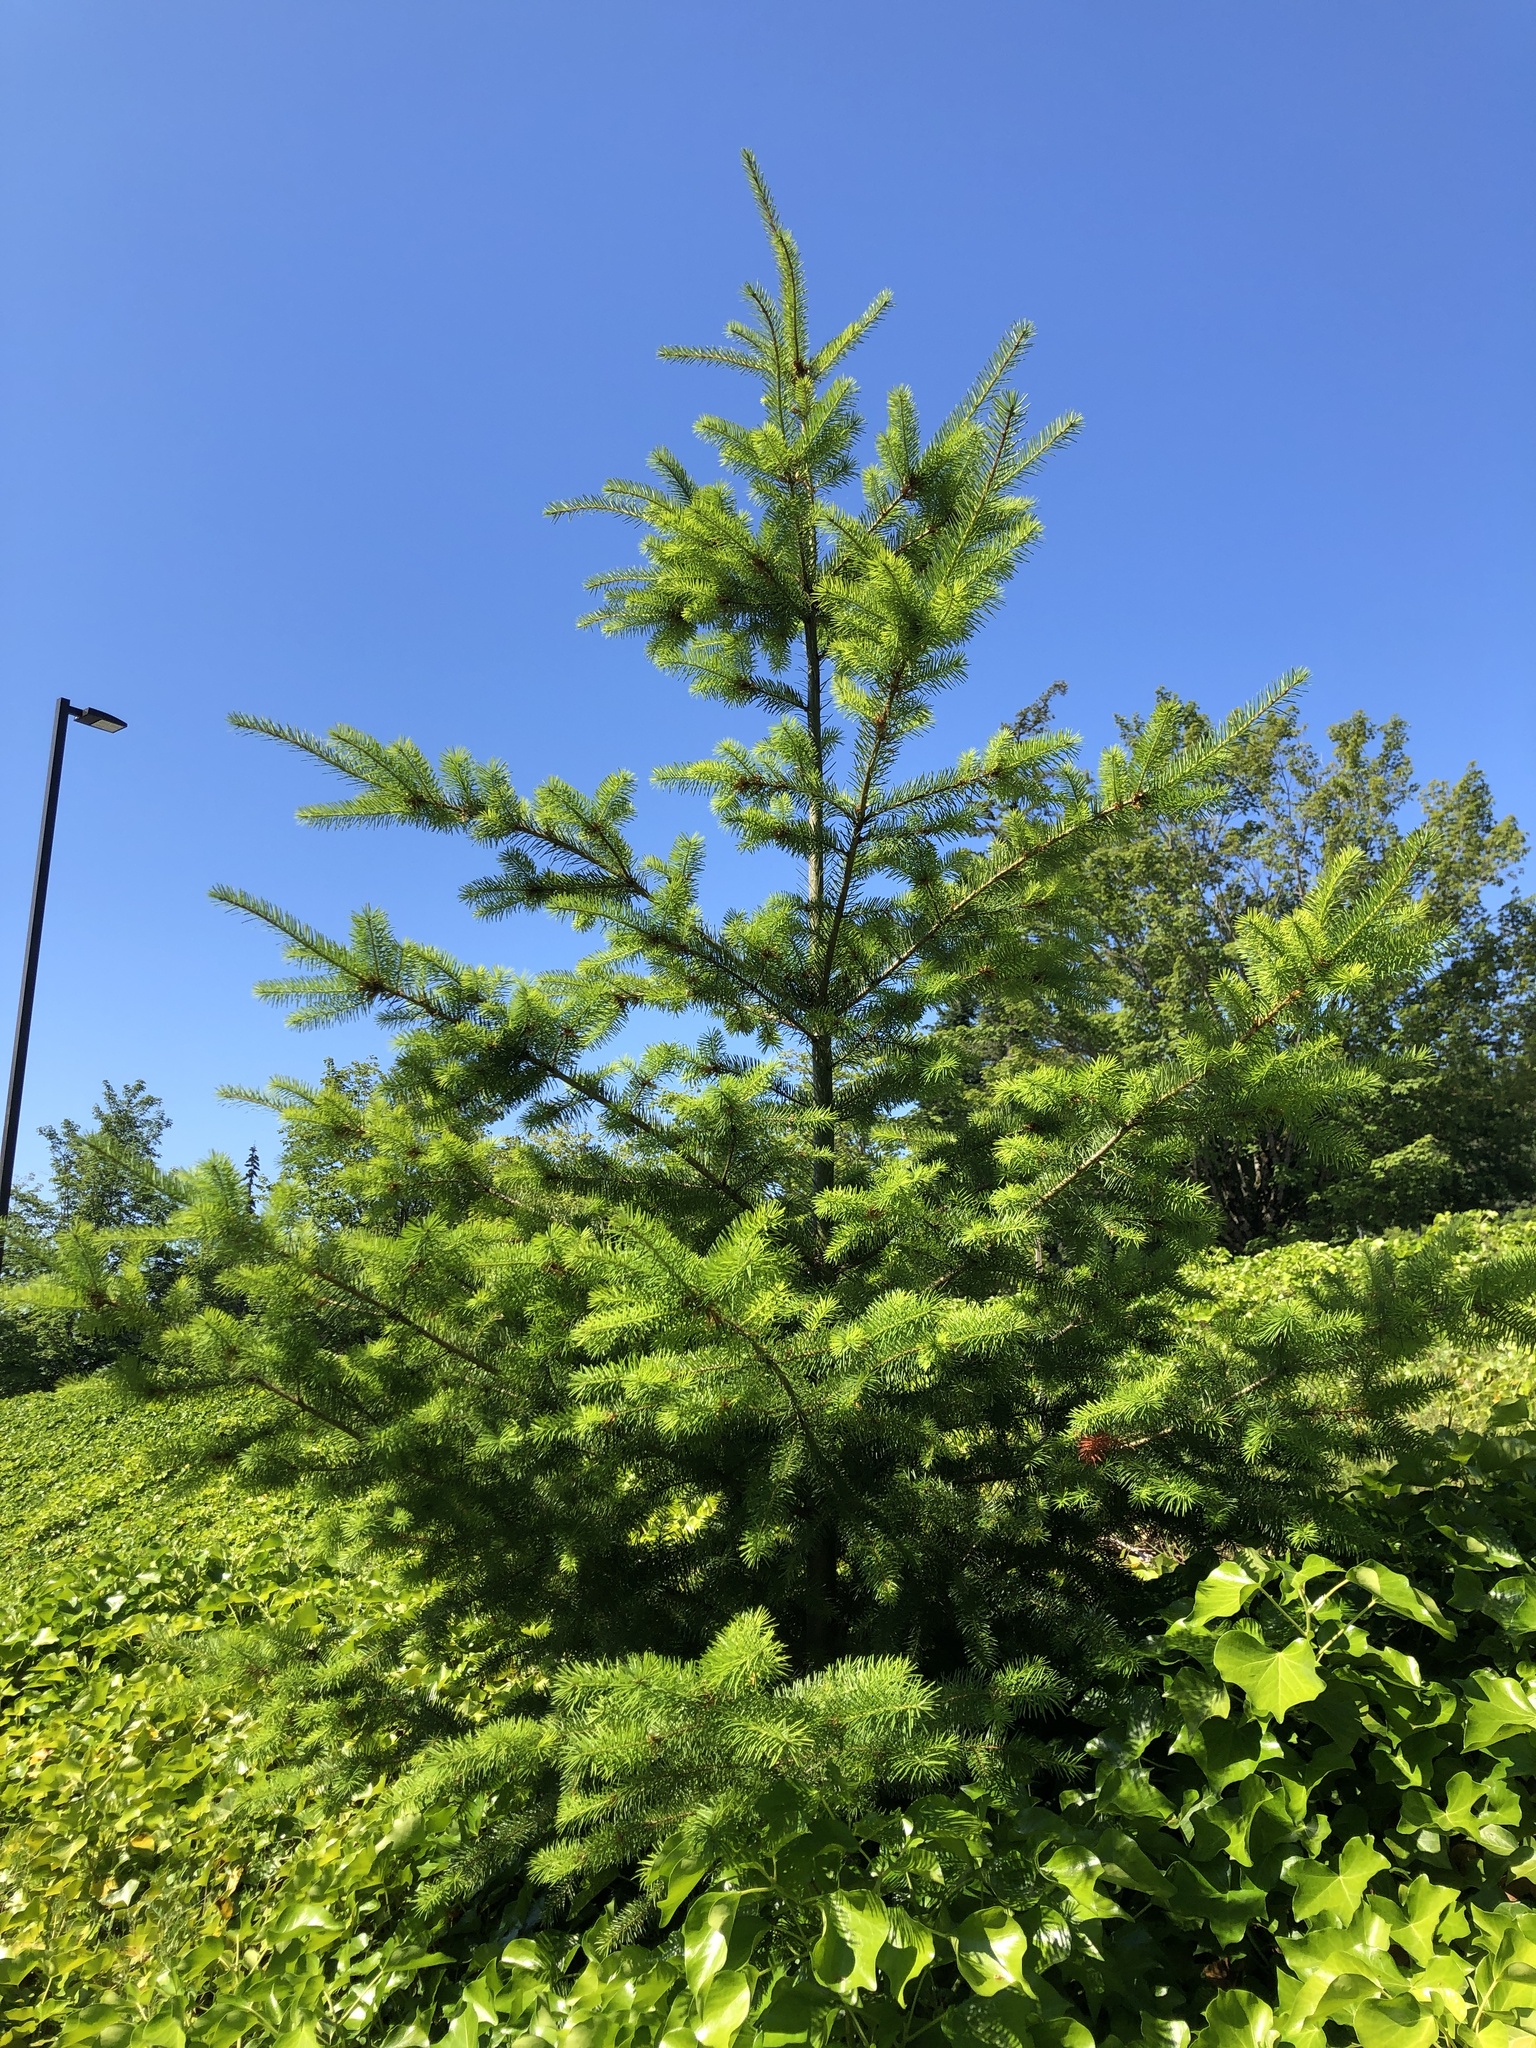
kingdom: Plantae
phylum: Tracheophyta
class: Pinopsida
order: Pinales
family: Pinaceae
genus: Pseudotsuga
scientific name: Pseudotsuga menziesii
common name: Douglas fir
